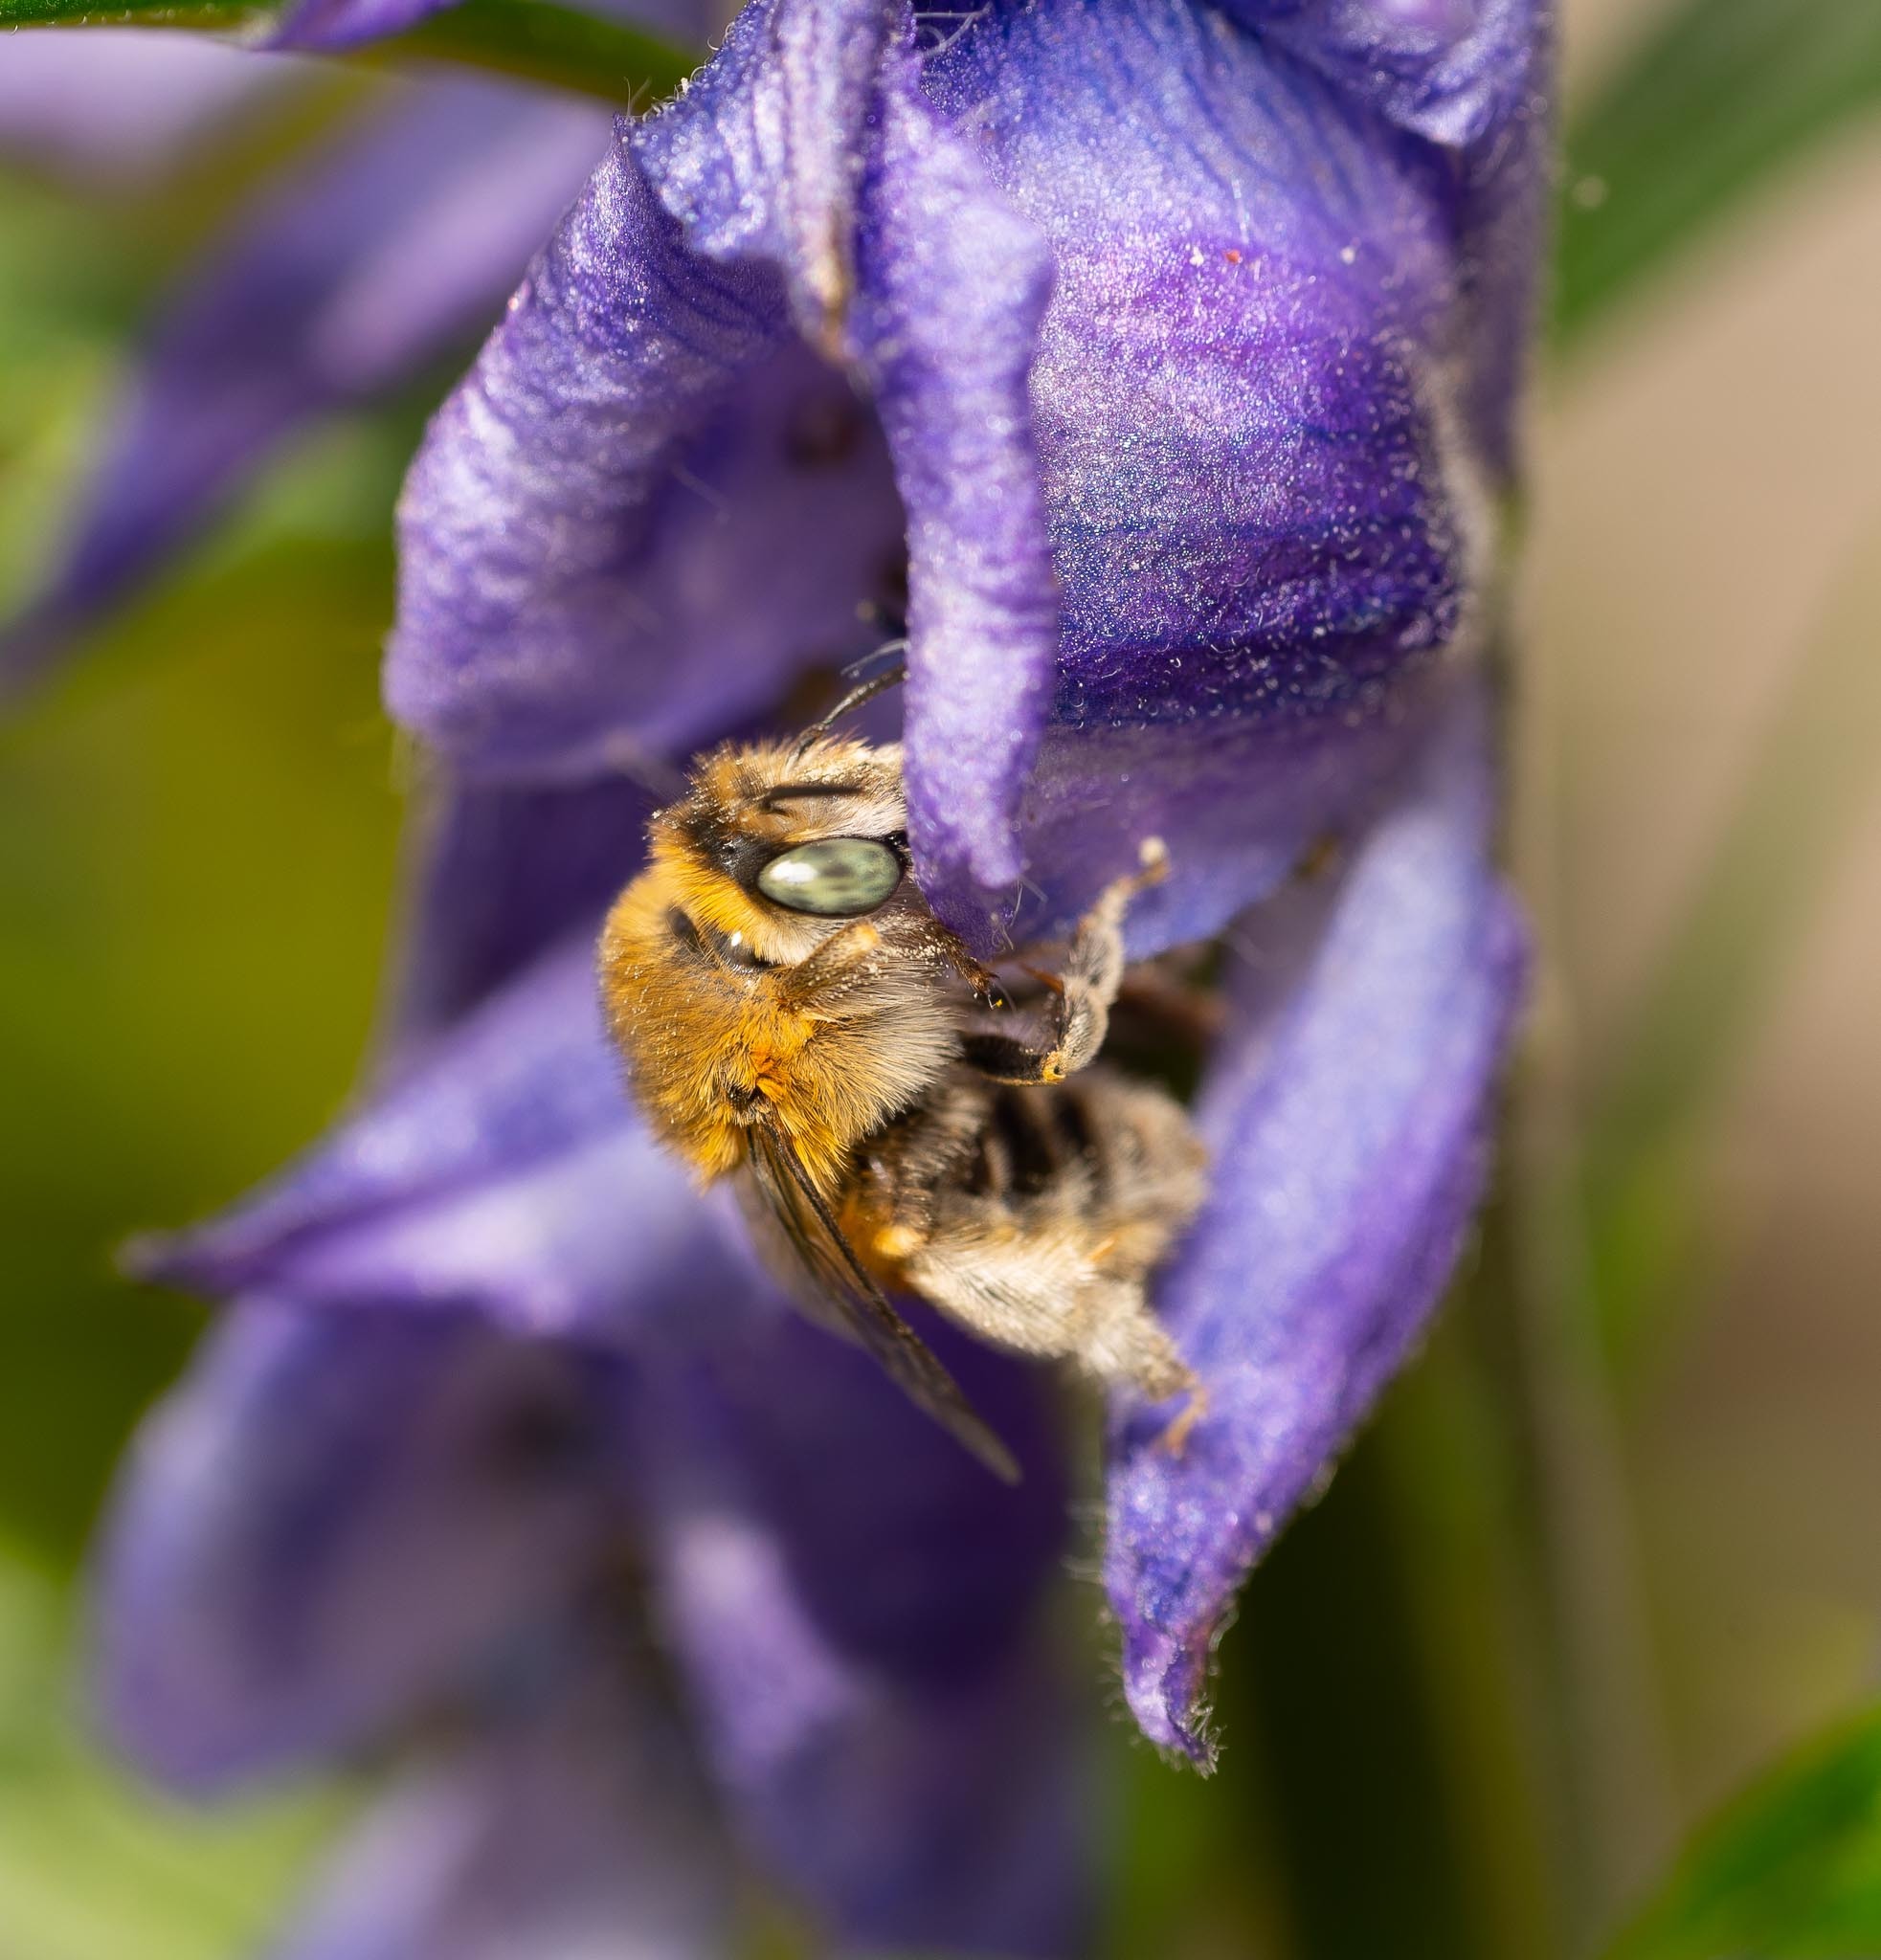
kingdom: Animalia
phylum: Arthropoda
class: Insecta
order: Hymenoptera
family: Apidae
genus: Anthophora
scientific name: Anthophora quadrimaculata
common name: Four-banded flower bee
